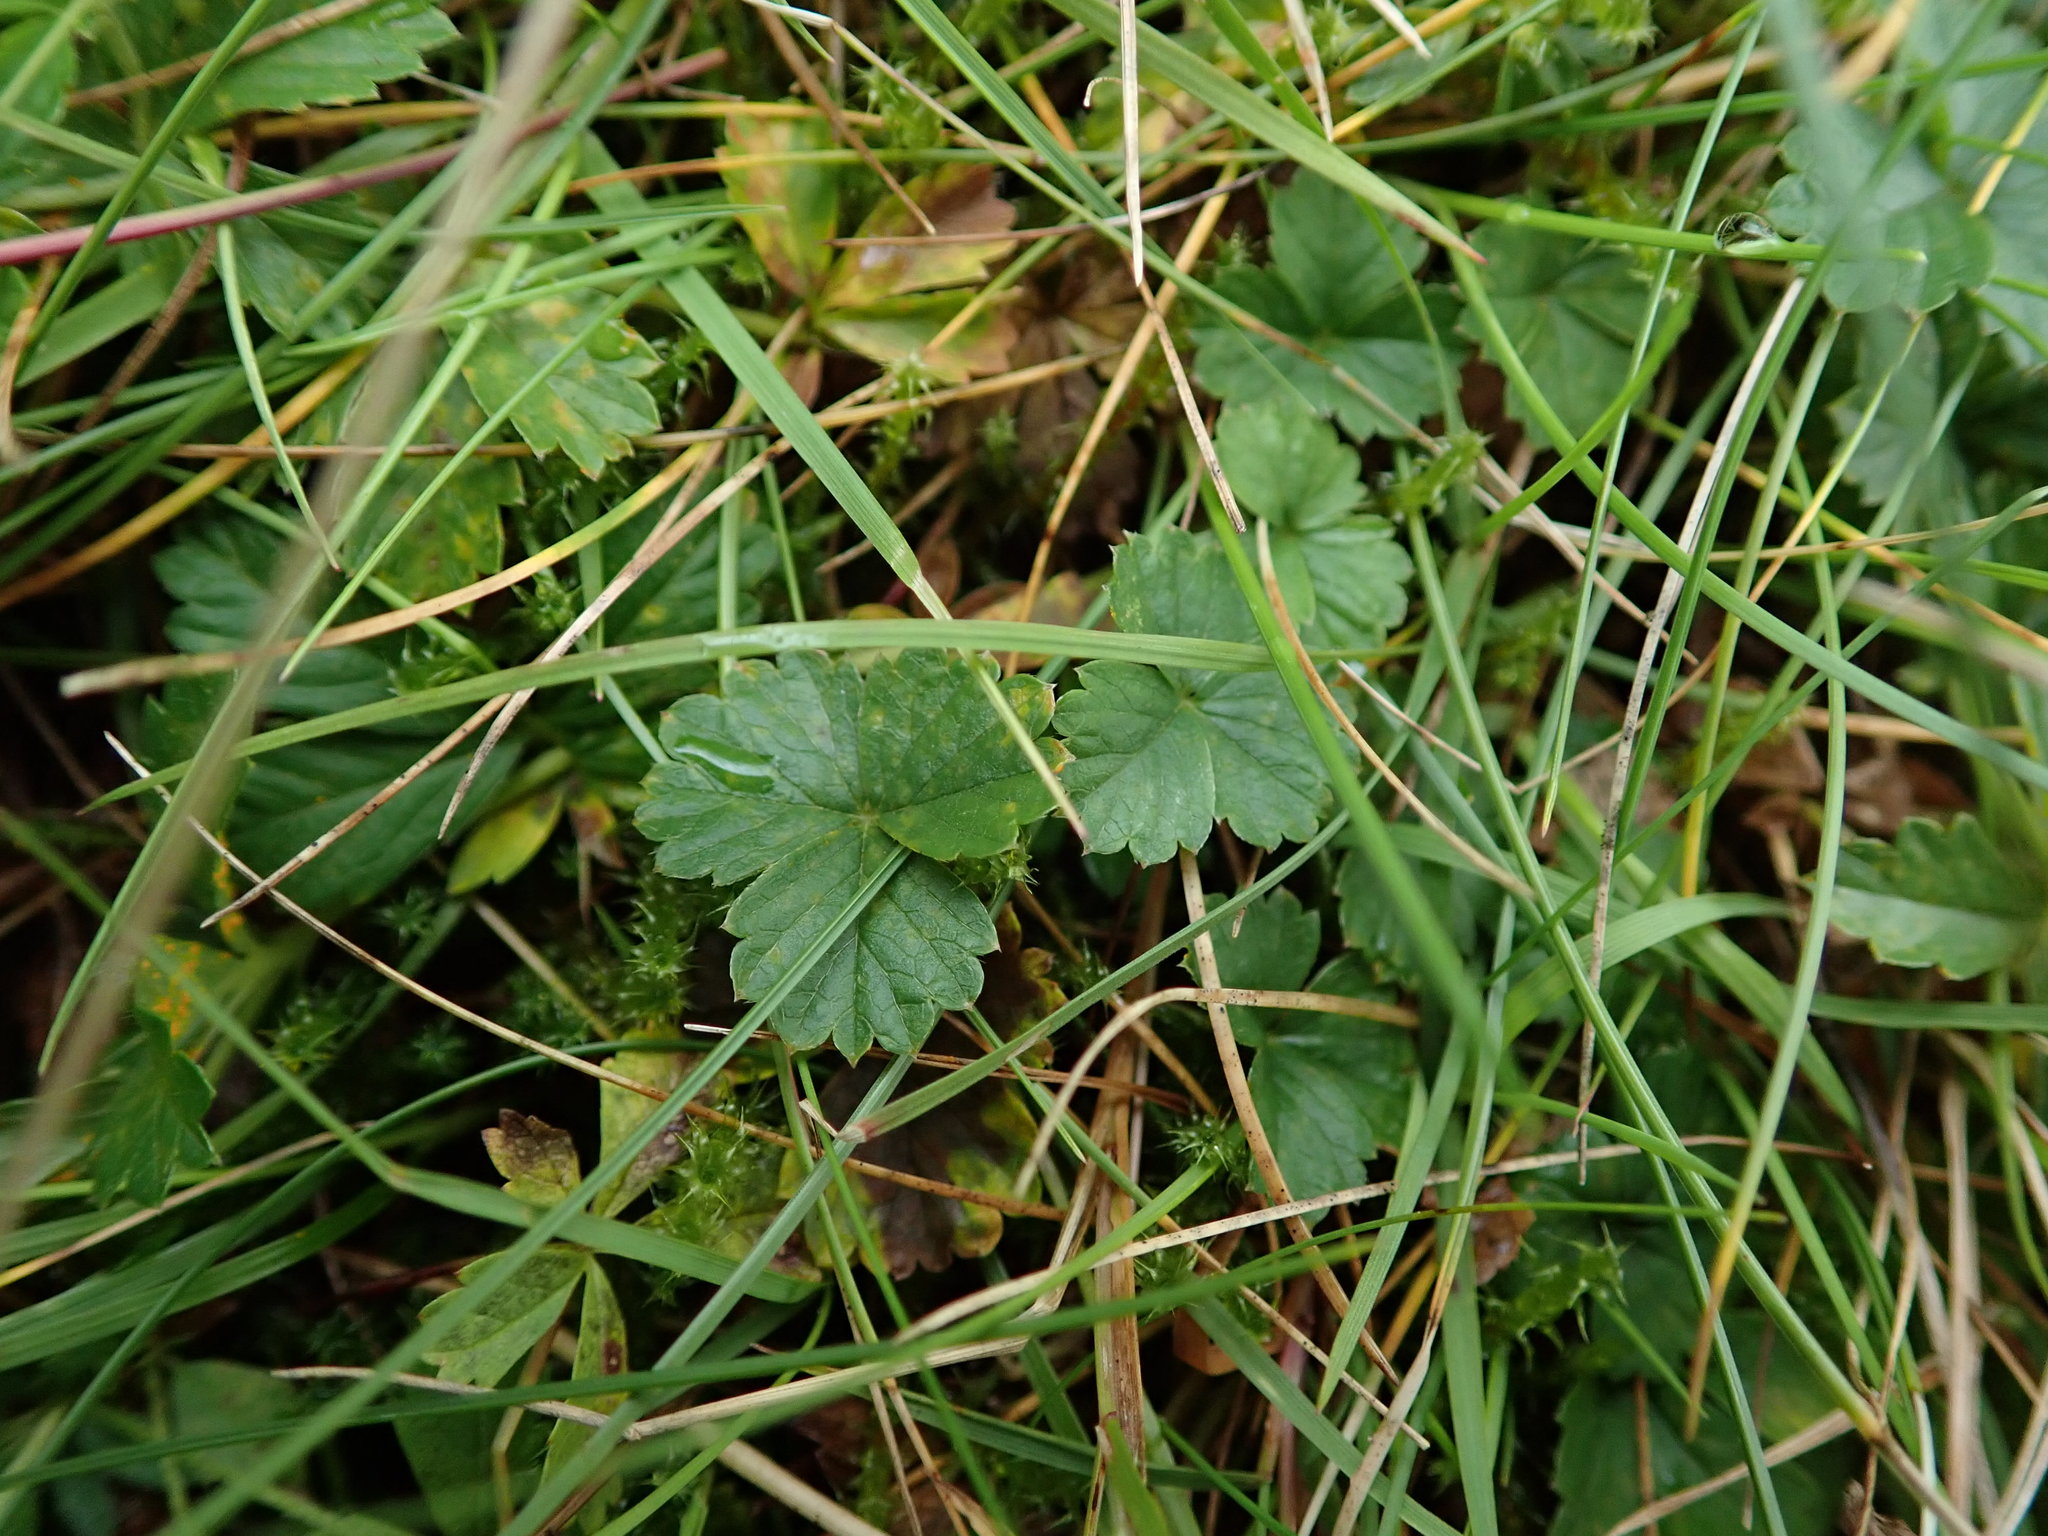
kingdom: Plantae
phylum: Tracheophyta
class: Magnoliopsida
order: Rosales
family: Rosaceae
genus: Potentilla
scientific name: Potentilla erecta
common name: Tormentil
